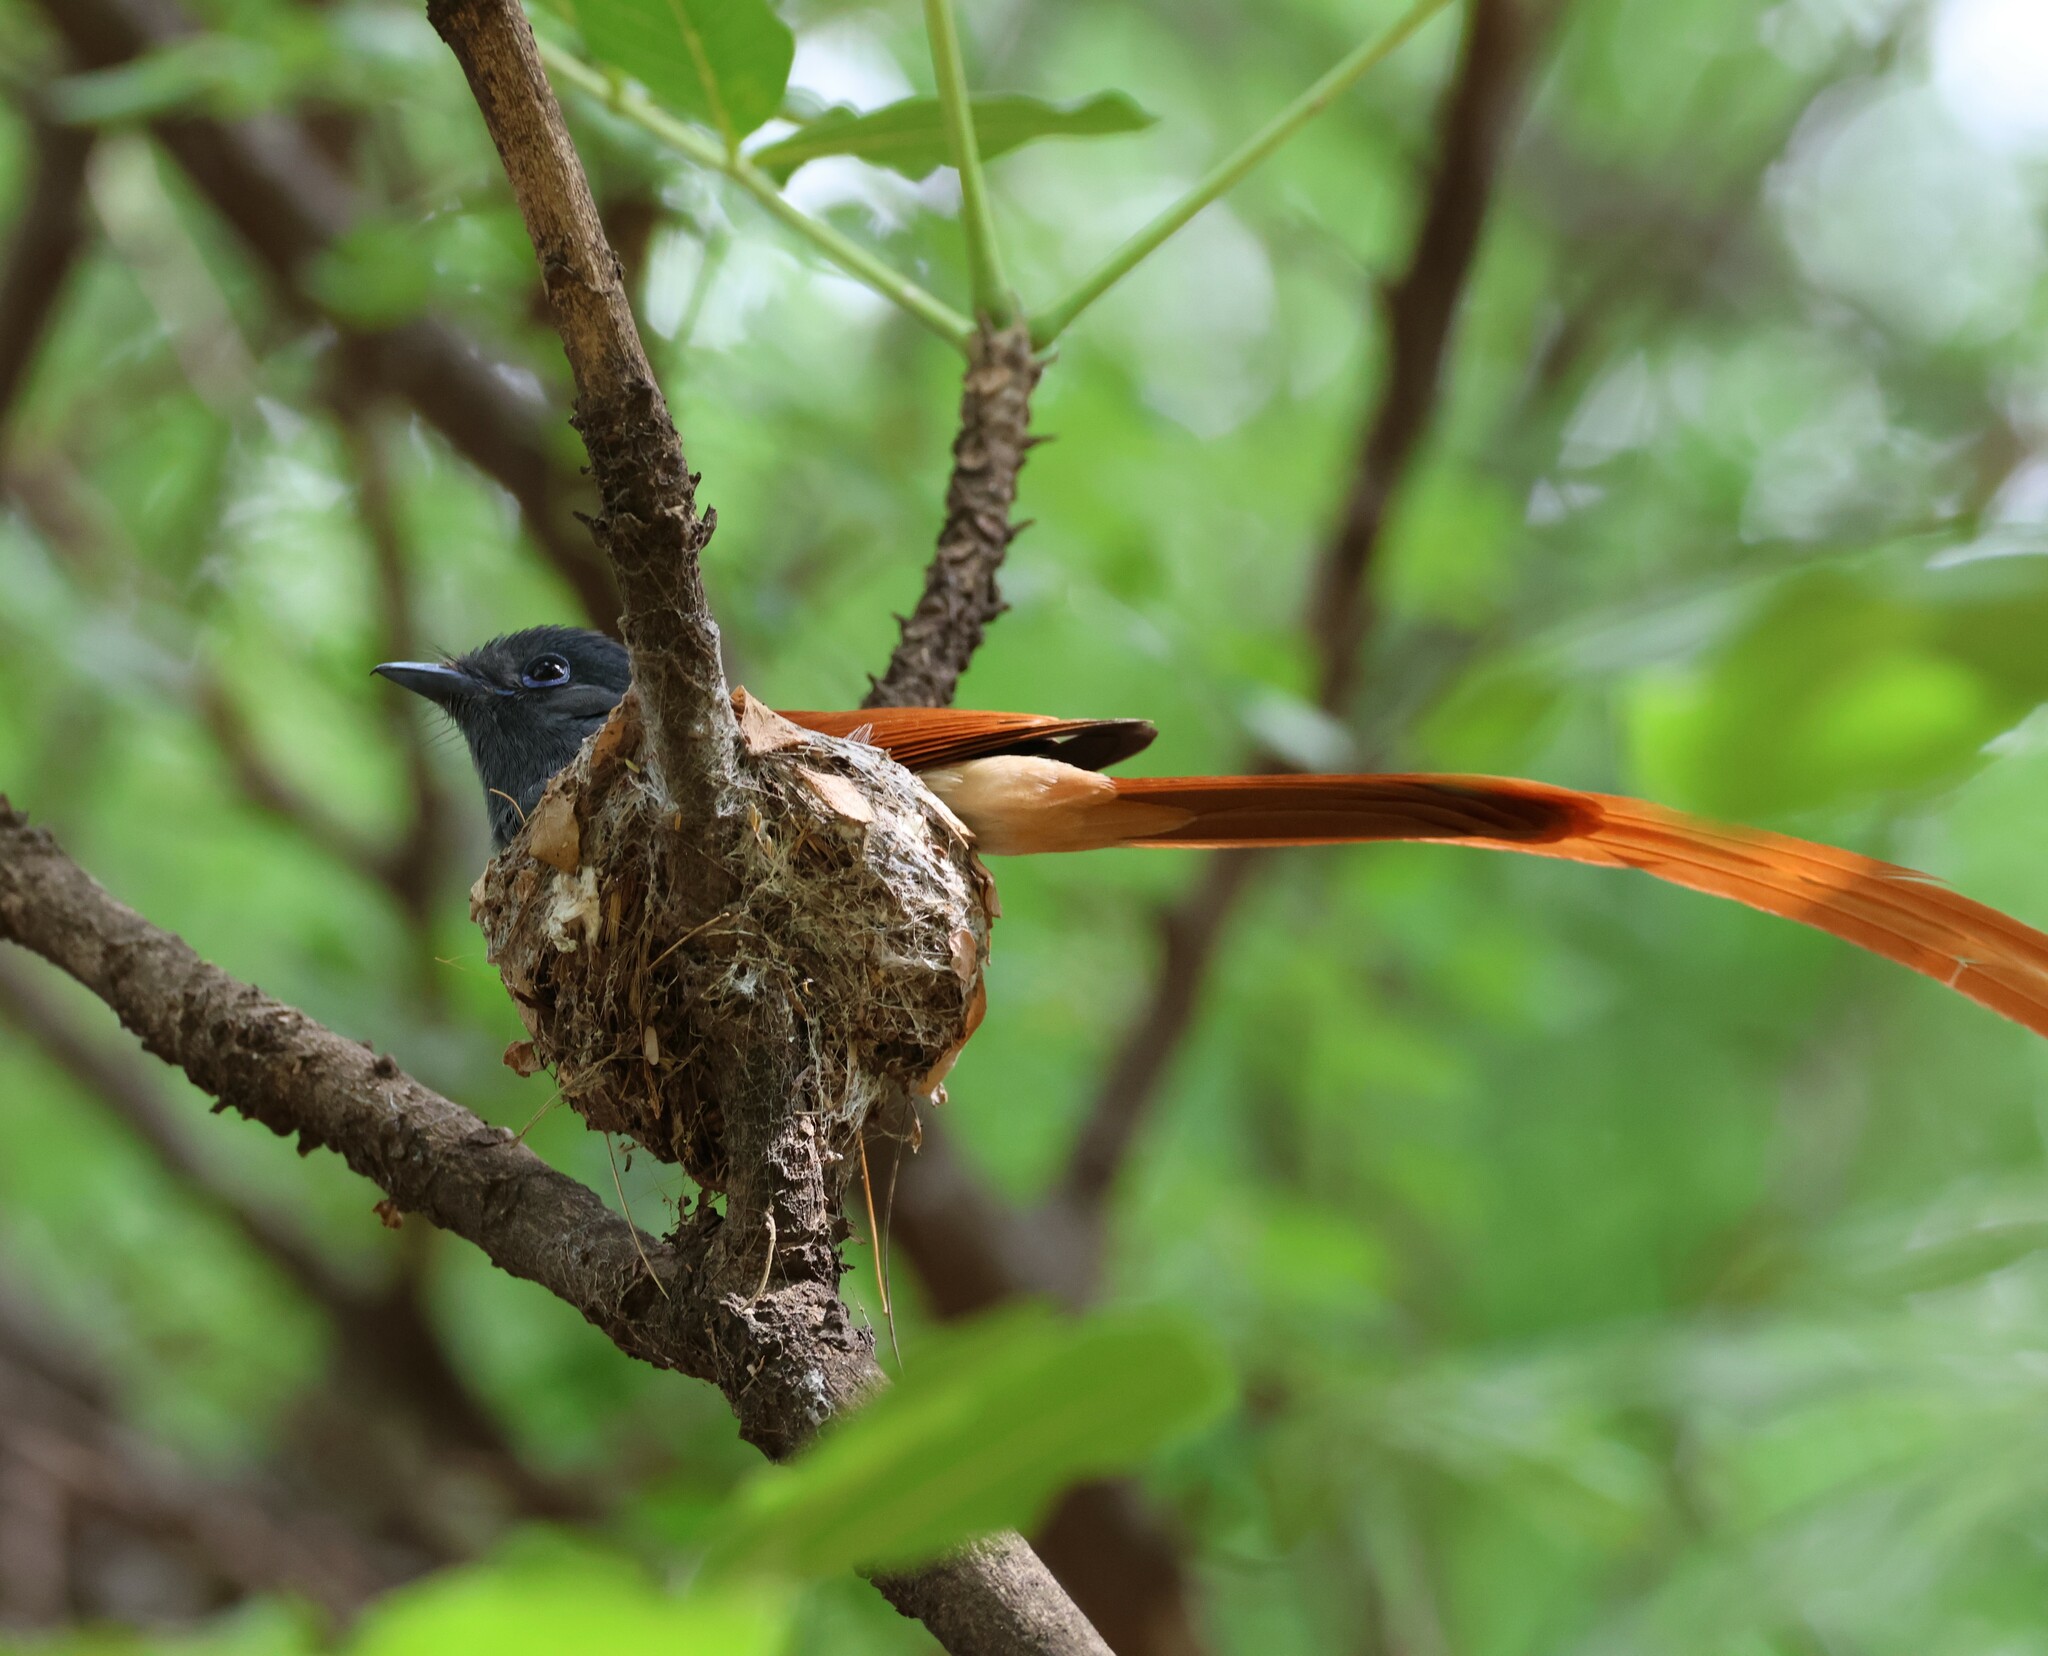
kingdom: Animalia
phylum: Chordata
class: Aves
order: Passeriformes
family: Monarchidae
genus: Terpsiphone
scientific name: Terpsiphone viridis
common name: African paradise flycatcher
